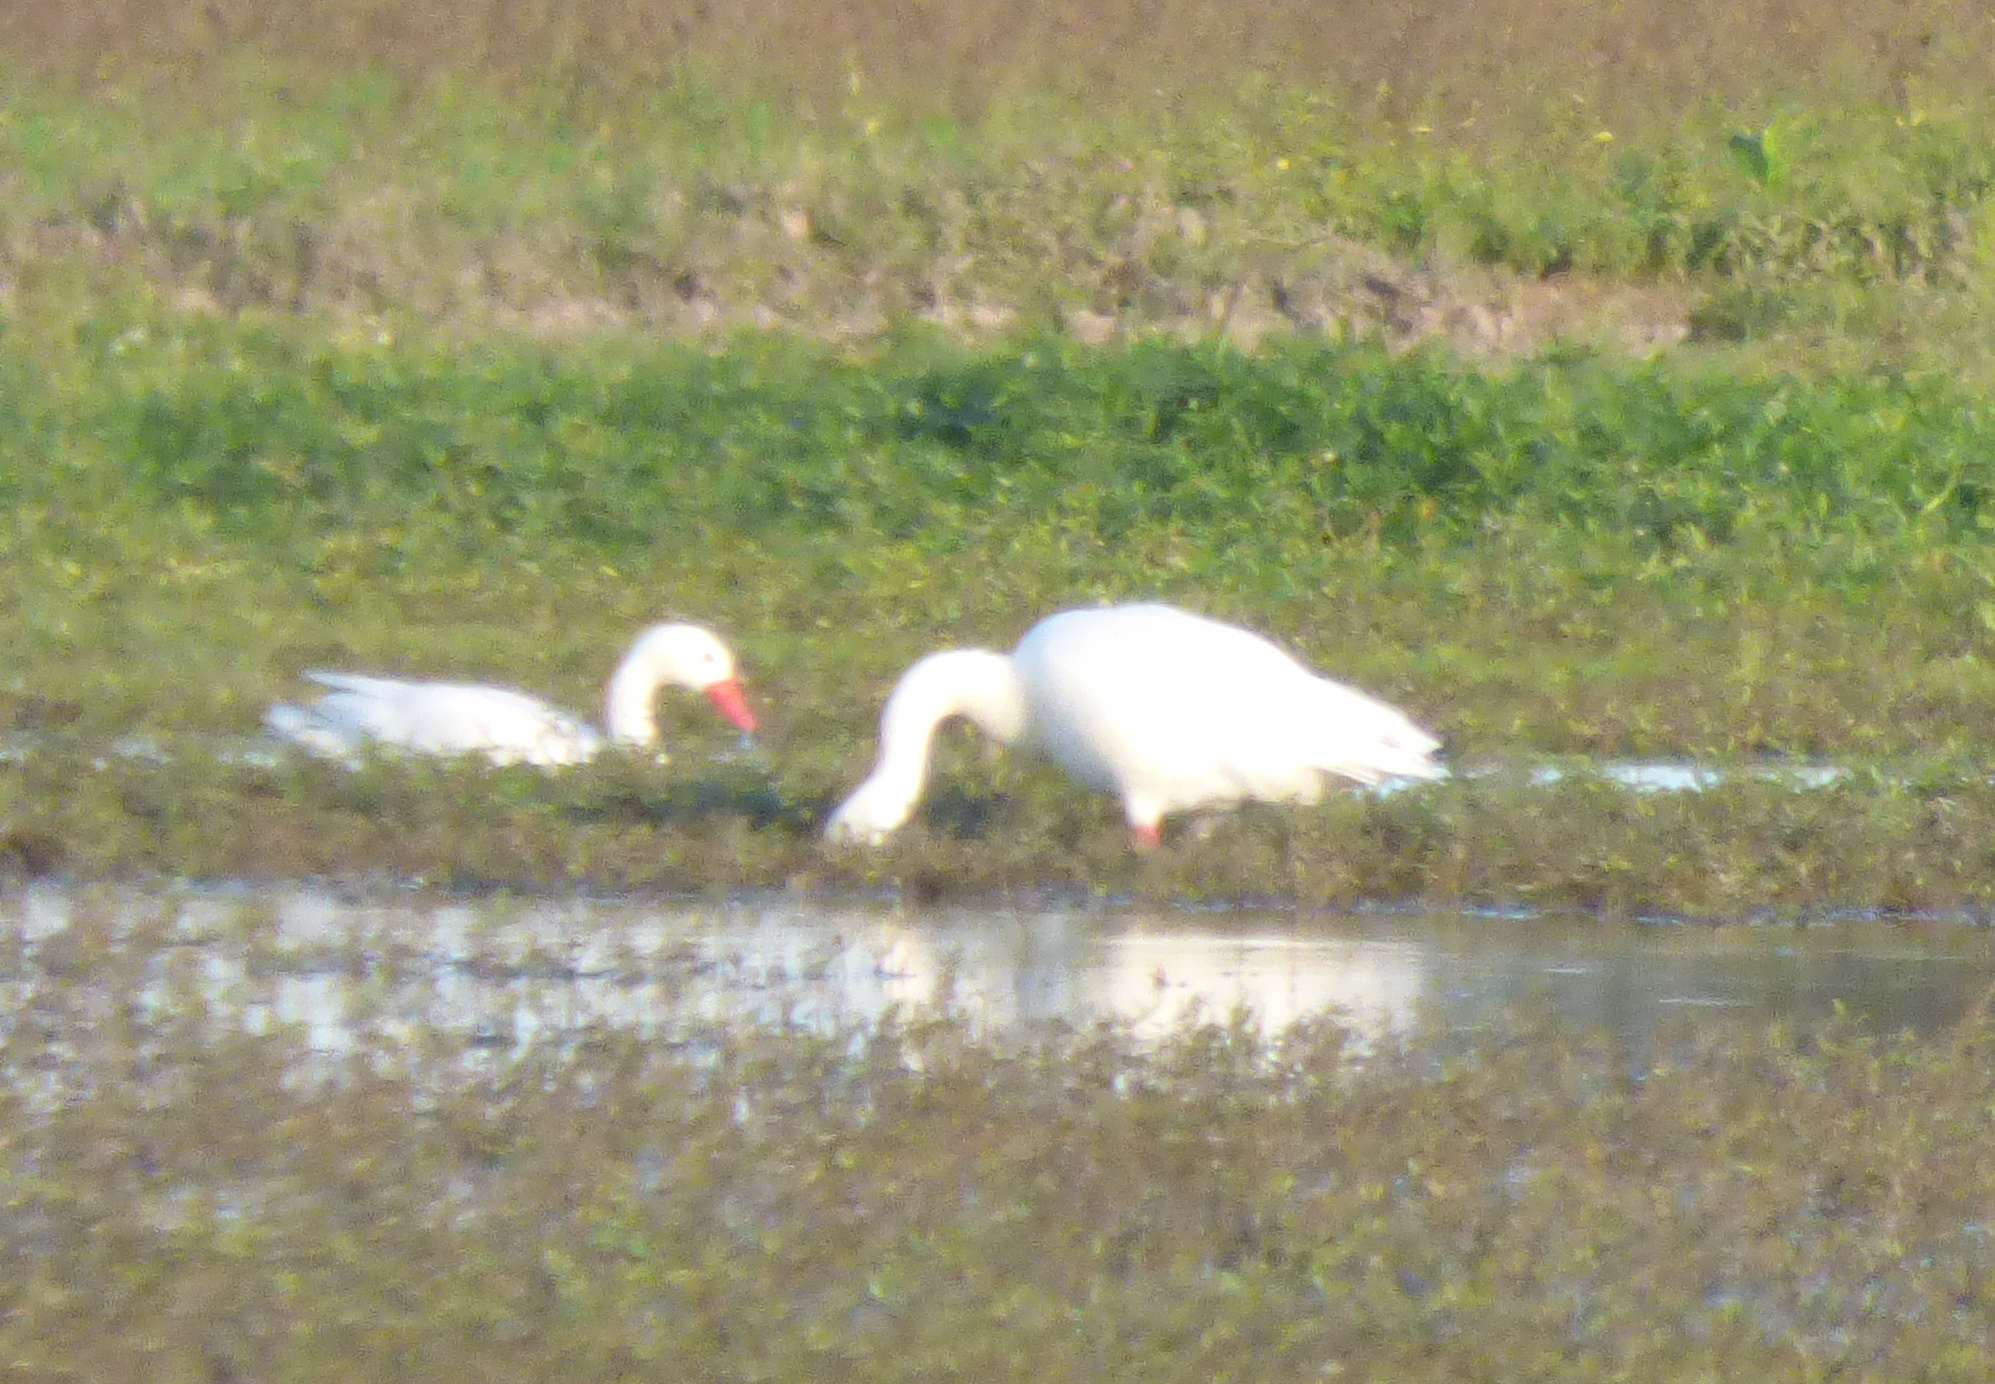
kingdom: Animalia
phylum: Chordata
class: Aves
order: Anseriformes
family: Anatidae
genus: Coscoroba
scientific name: Coscoroba coscoroba
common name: Coscoroba swan
